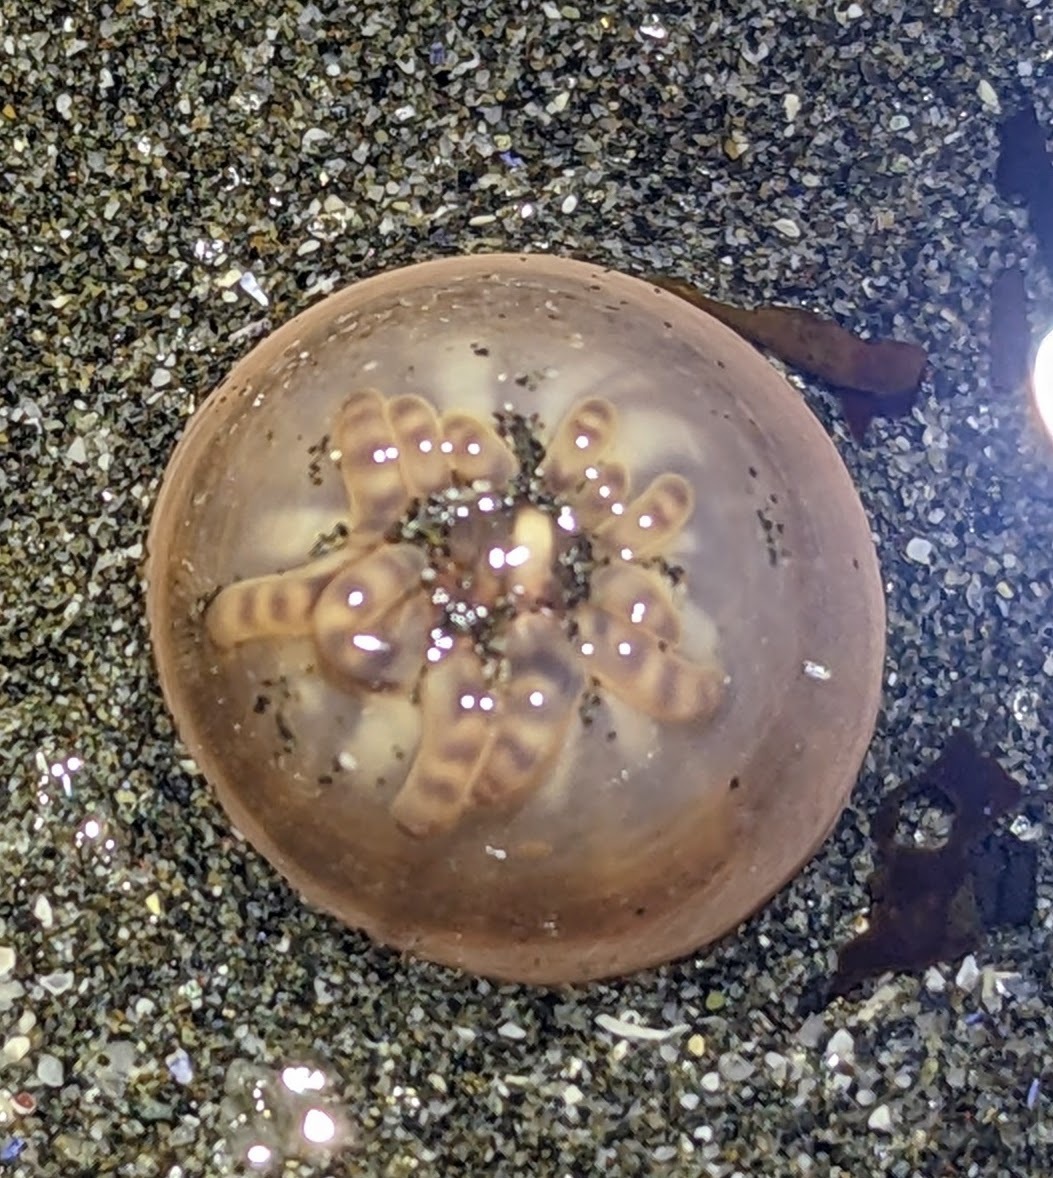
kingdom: Animalia
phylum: Cnidaria
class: Anthozoa
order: Actiniaria
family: Peachiidae
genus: Peachia
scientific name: Peachia quinquecapitata
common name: Twelve-tentacled parasitic anemone
